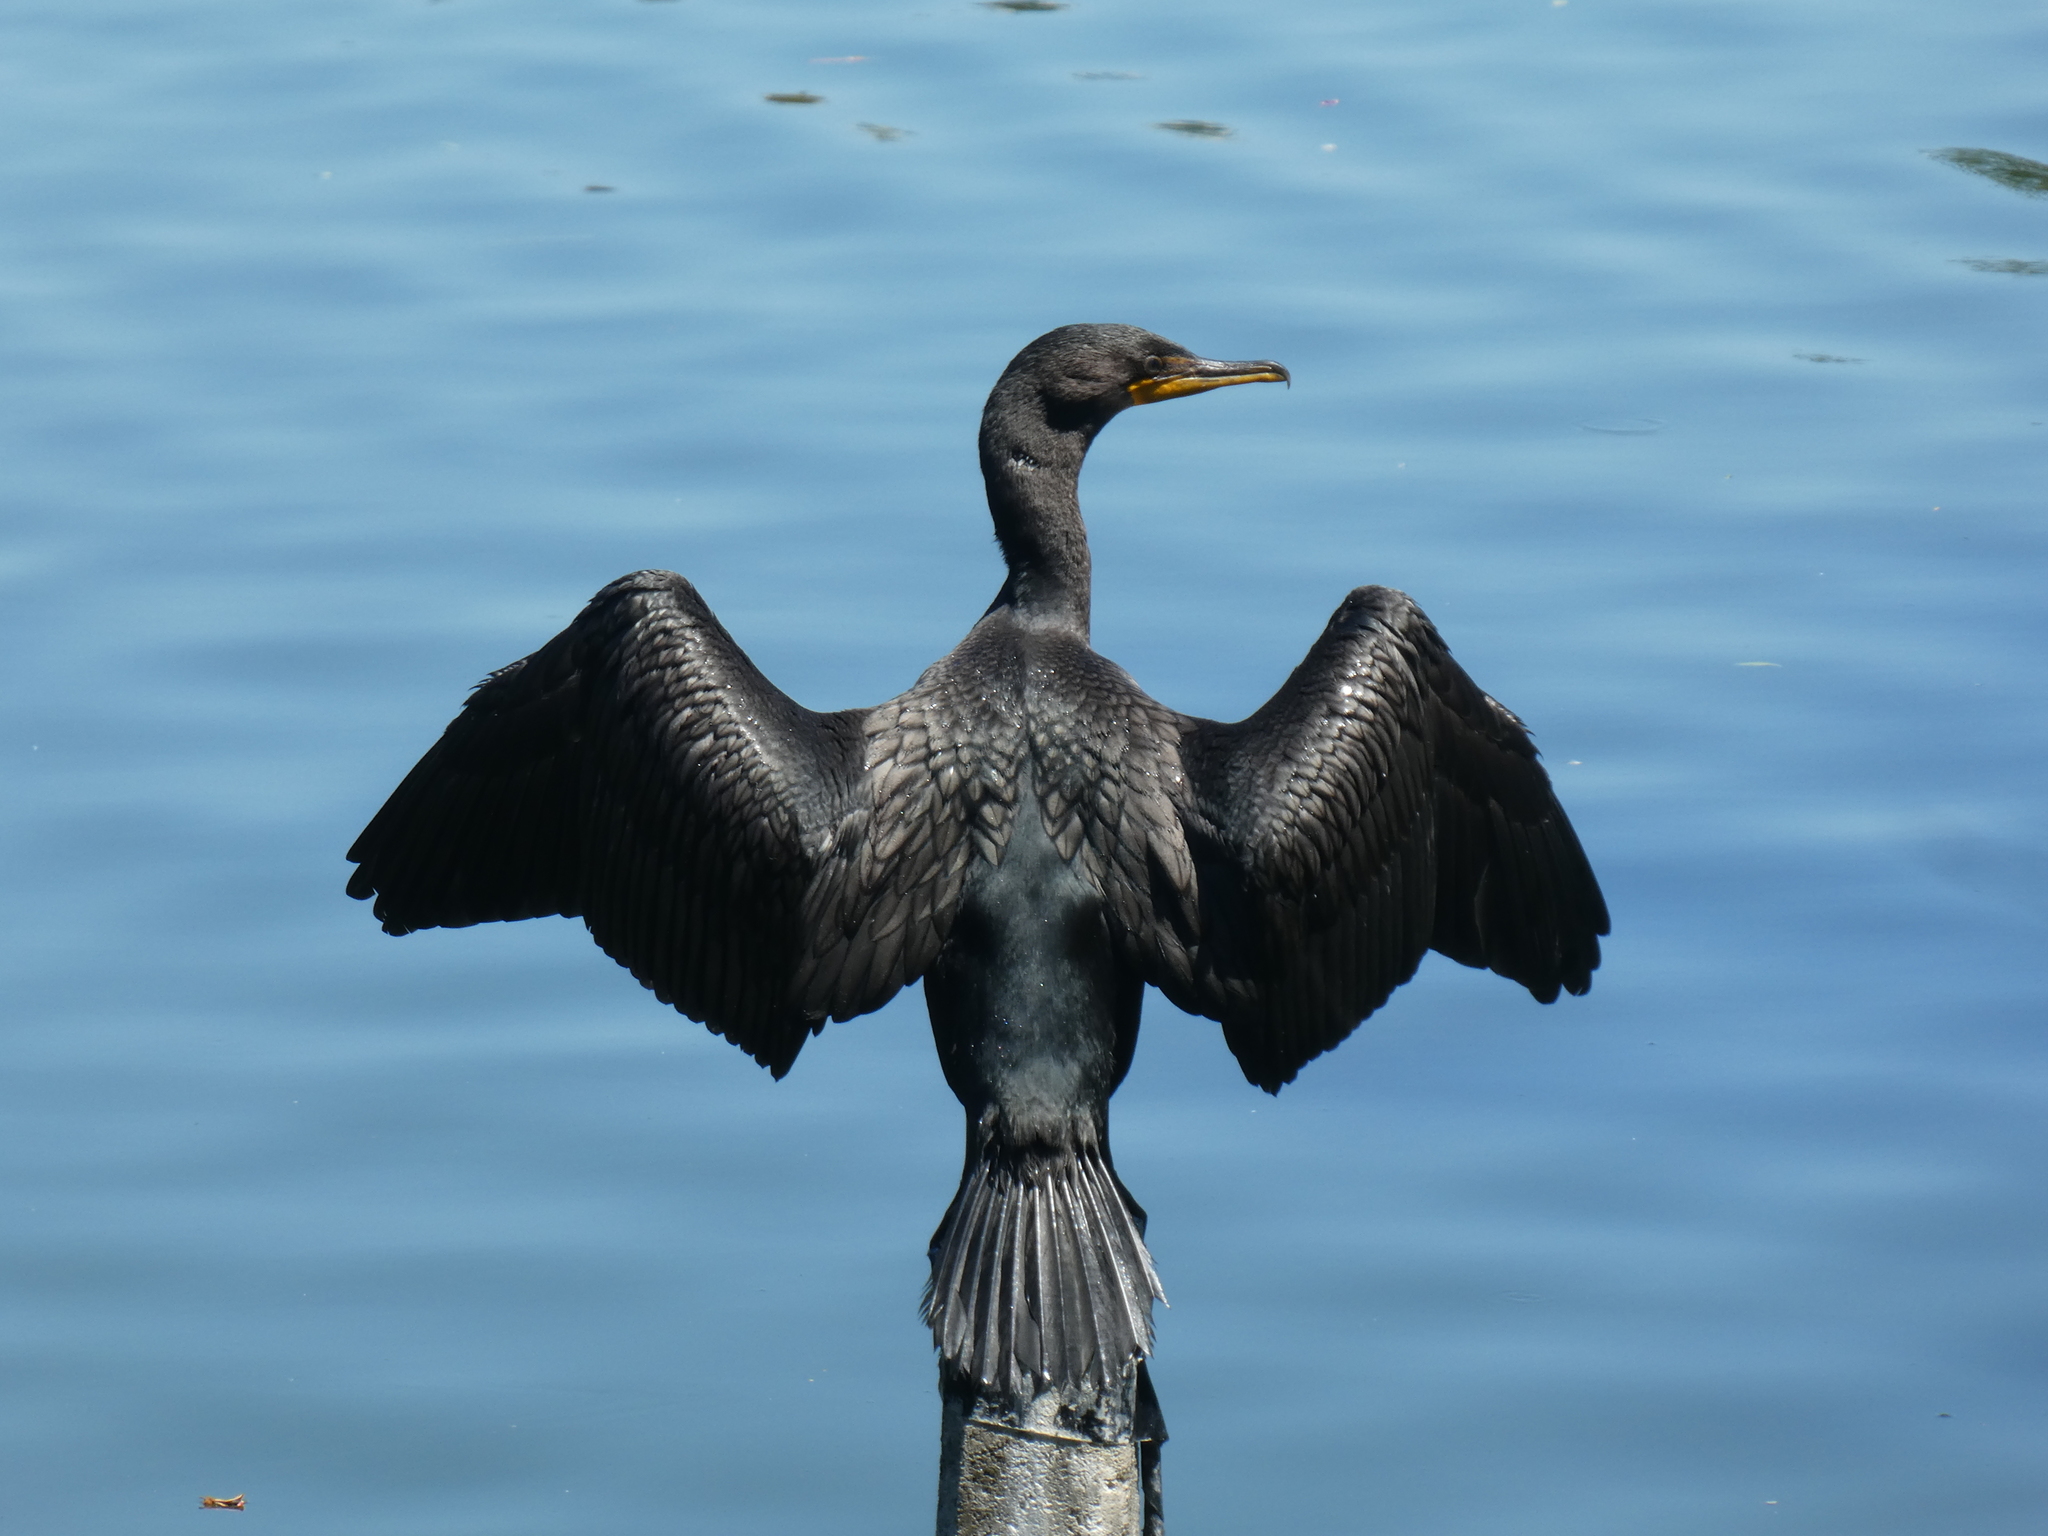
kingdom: Animalia
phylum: Chordata
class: Aves
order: Suliformes
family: Phalacrocoracidae
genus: Phalacrocorax
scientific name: Phalacrocorax auritus
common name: Double-crested cormorant
